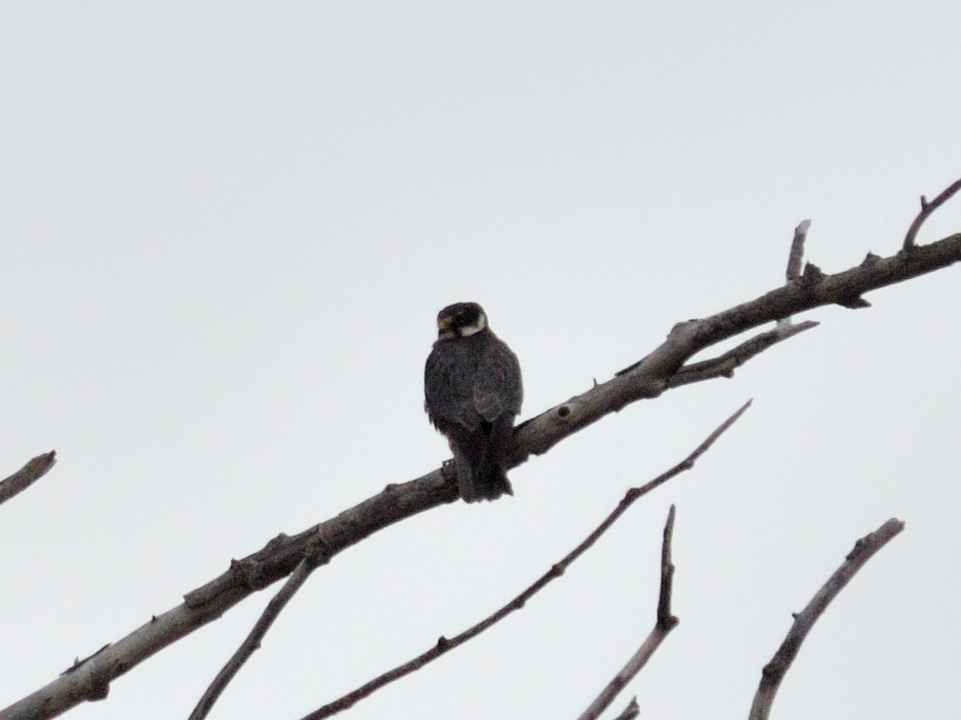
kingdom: Animalia
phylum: Chordata
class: Aves
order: Falconiformes
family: Falconidae
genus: Falco
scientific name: Falco subbuteo
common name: Eurasian hobby
